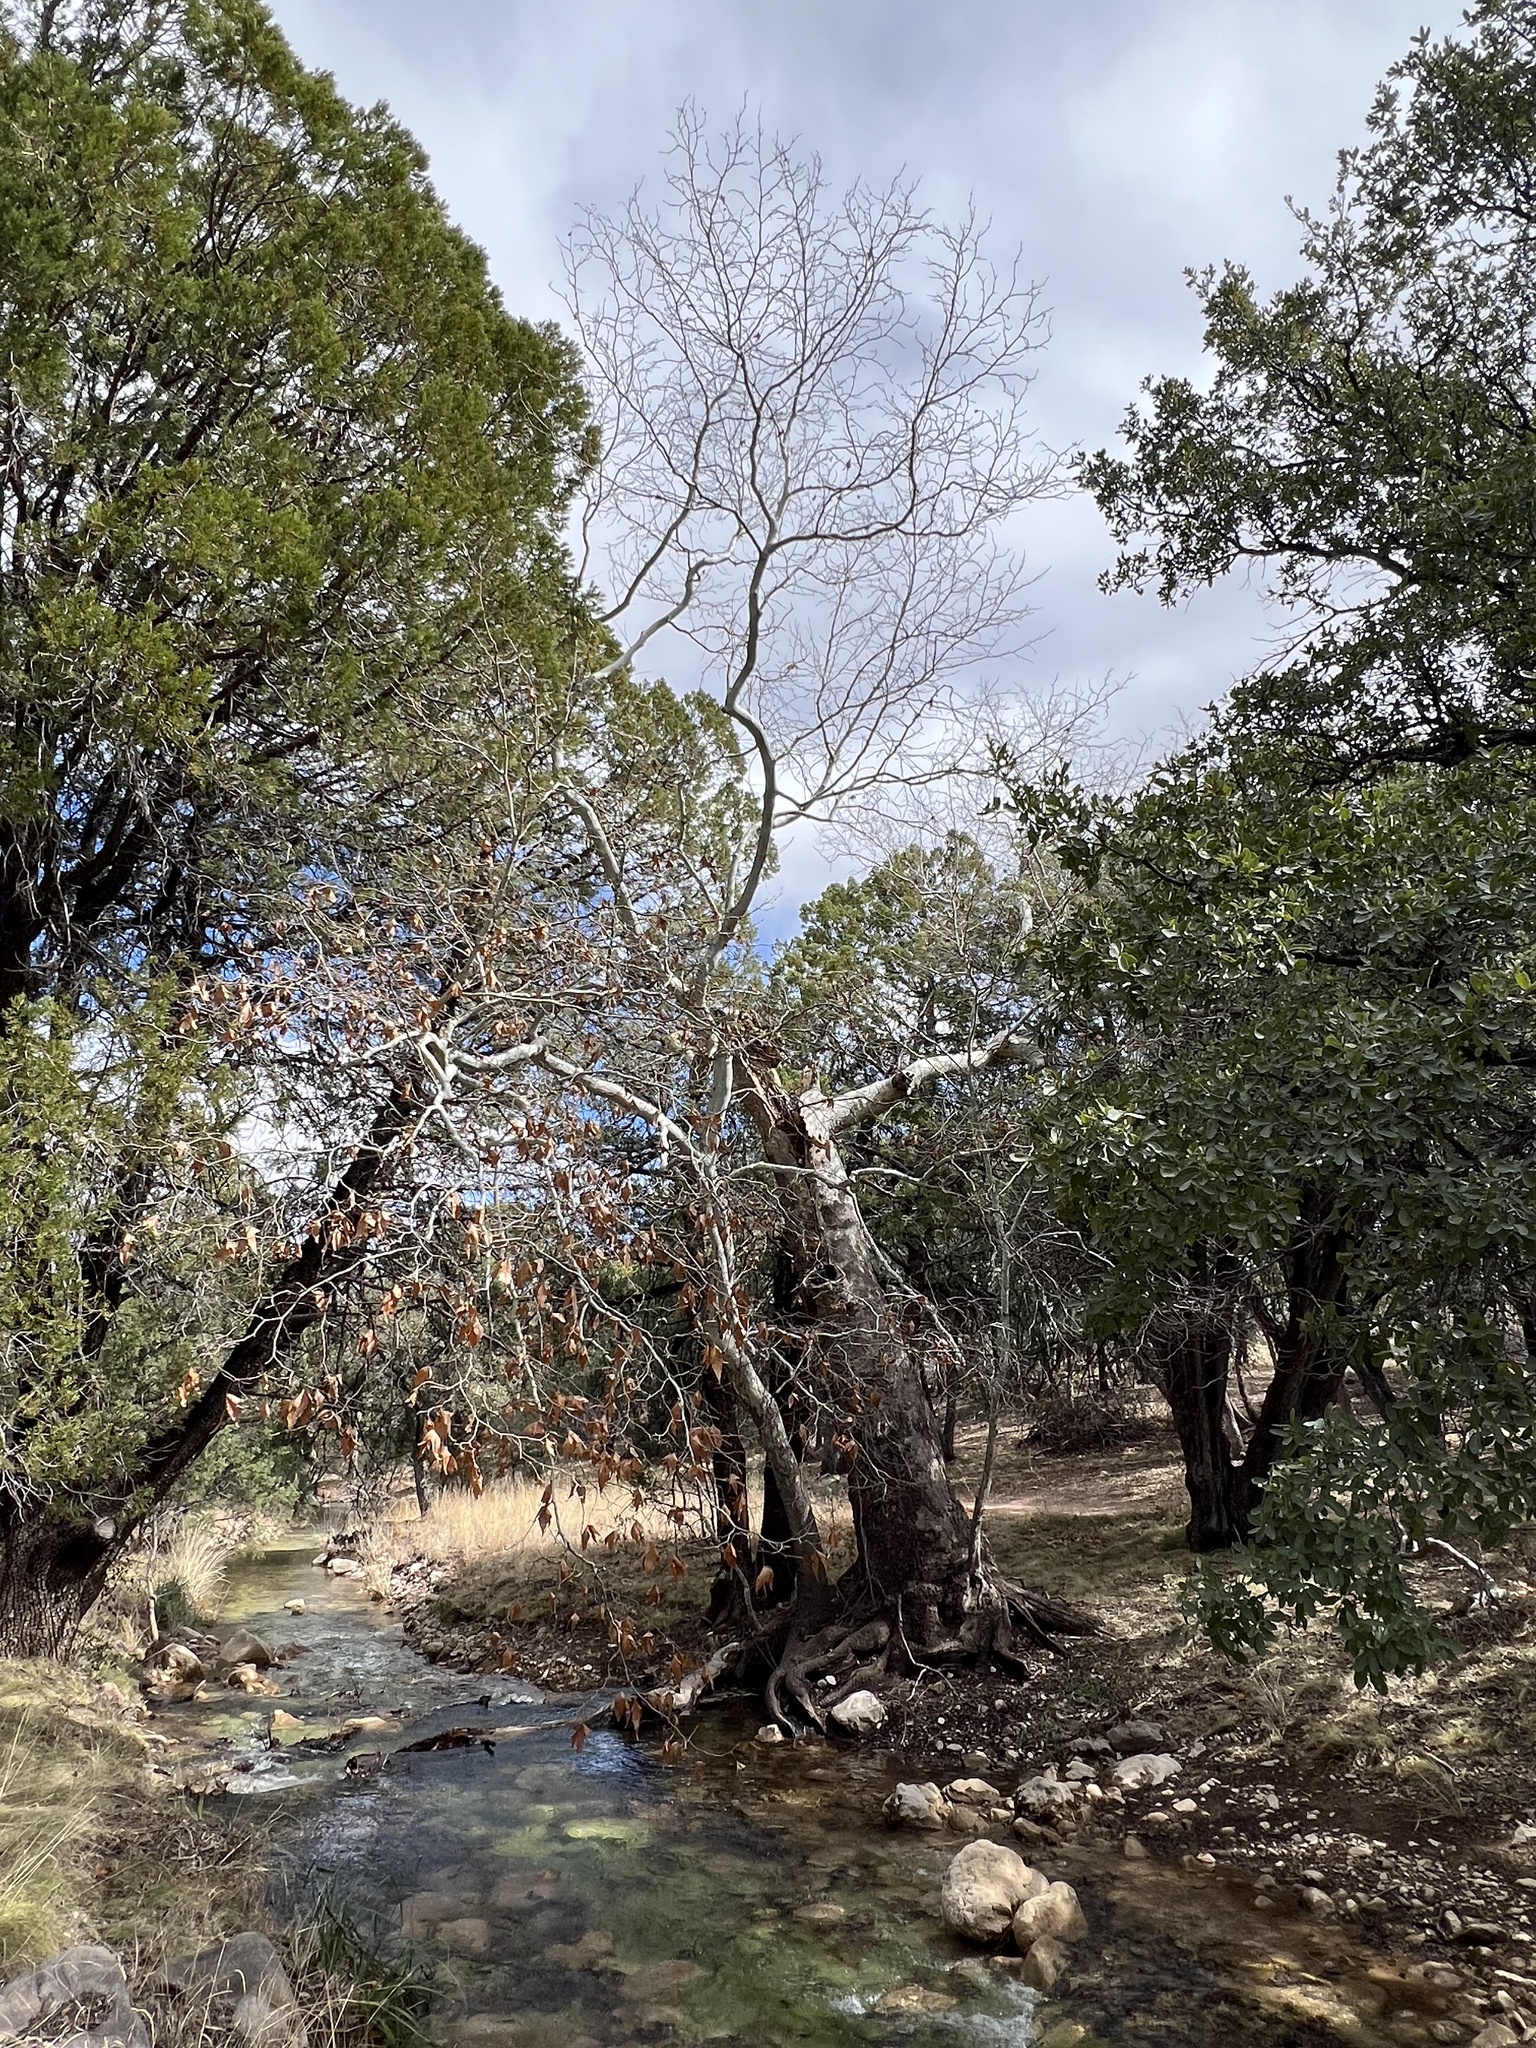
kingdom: Plantae
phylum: Tracheophyta
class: Magnoliopsida
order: Proteales
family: Platanaceae
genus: Platanus
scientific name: Platanus wrightii
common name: Arizona sycamore
